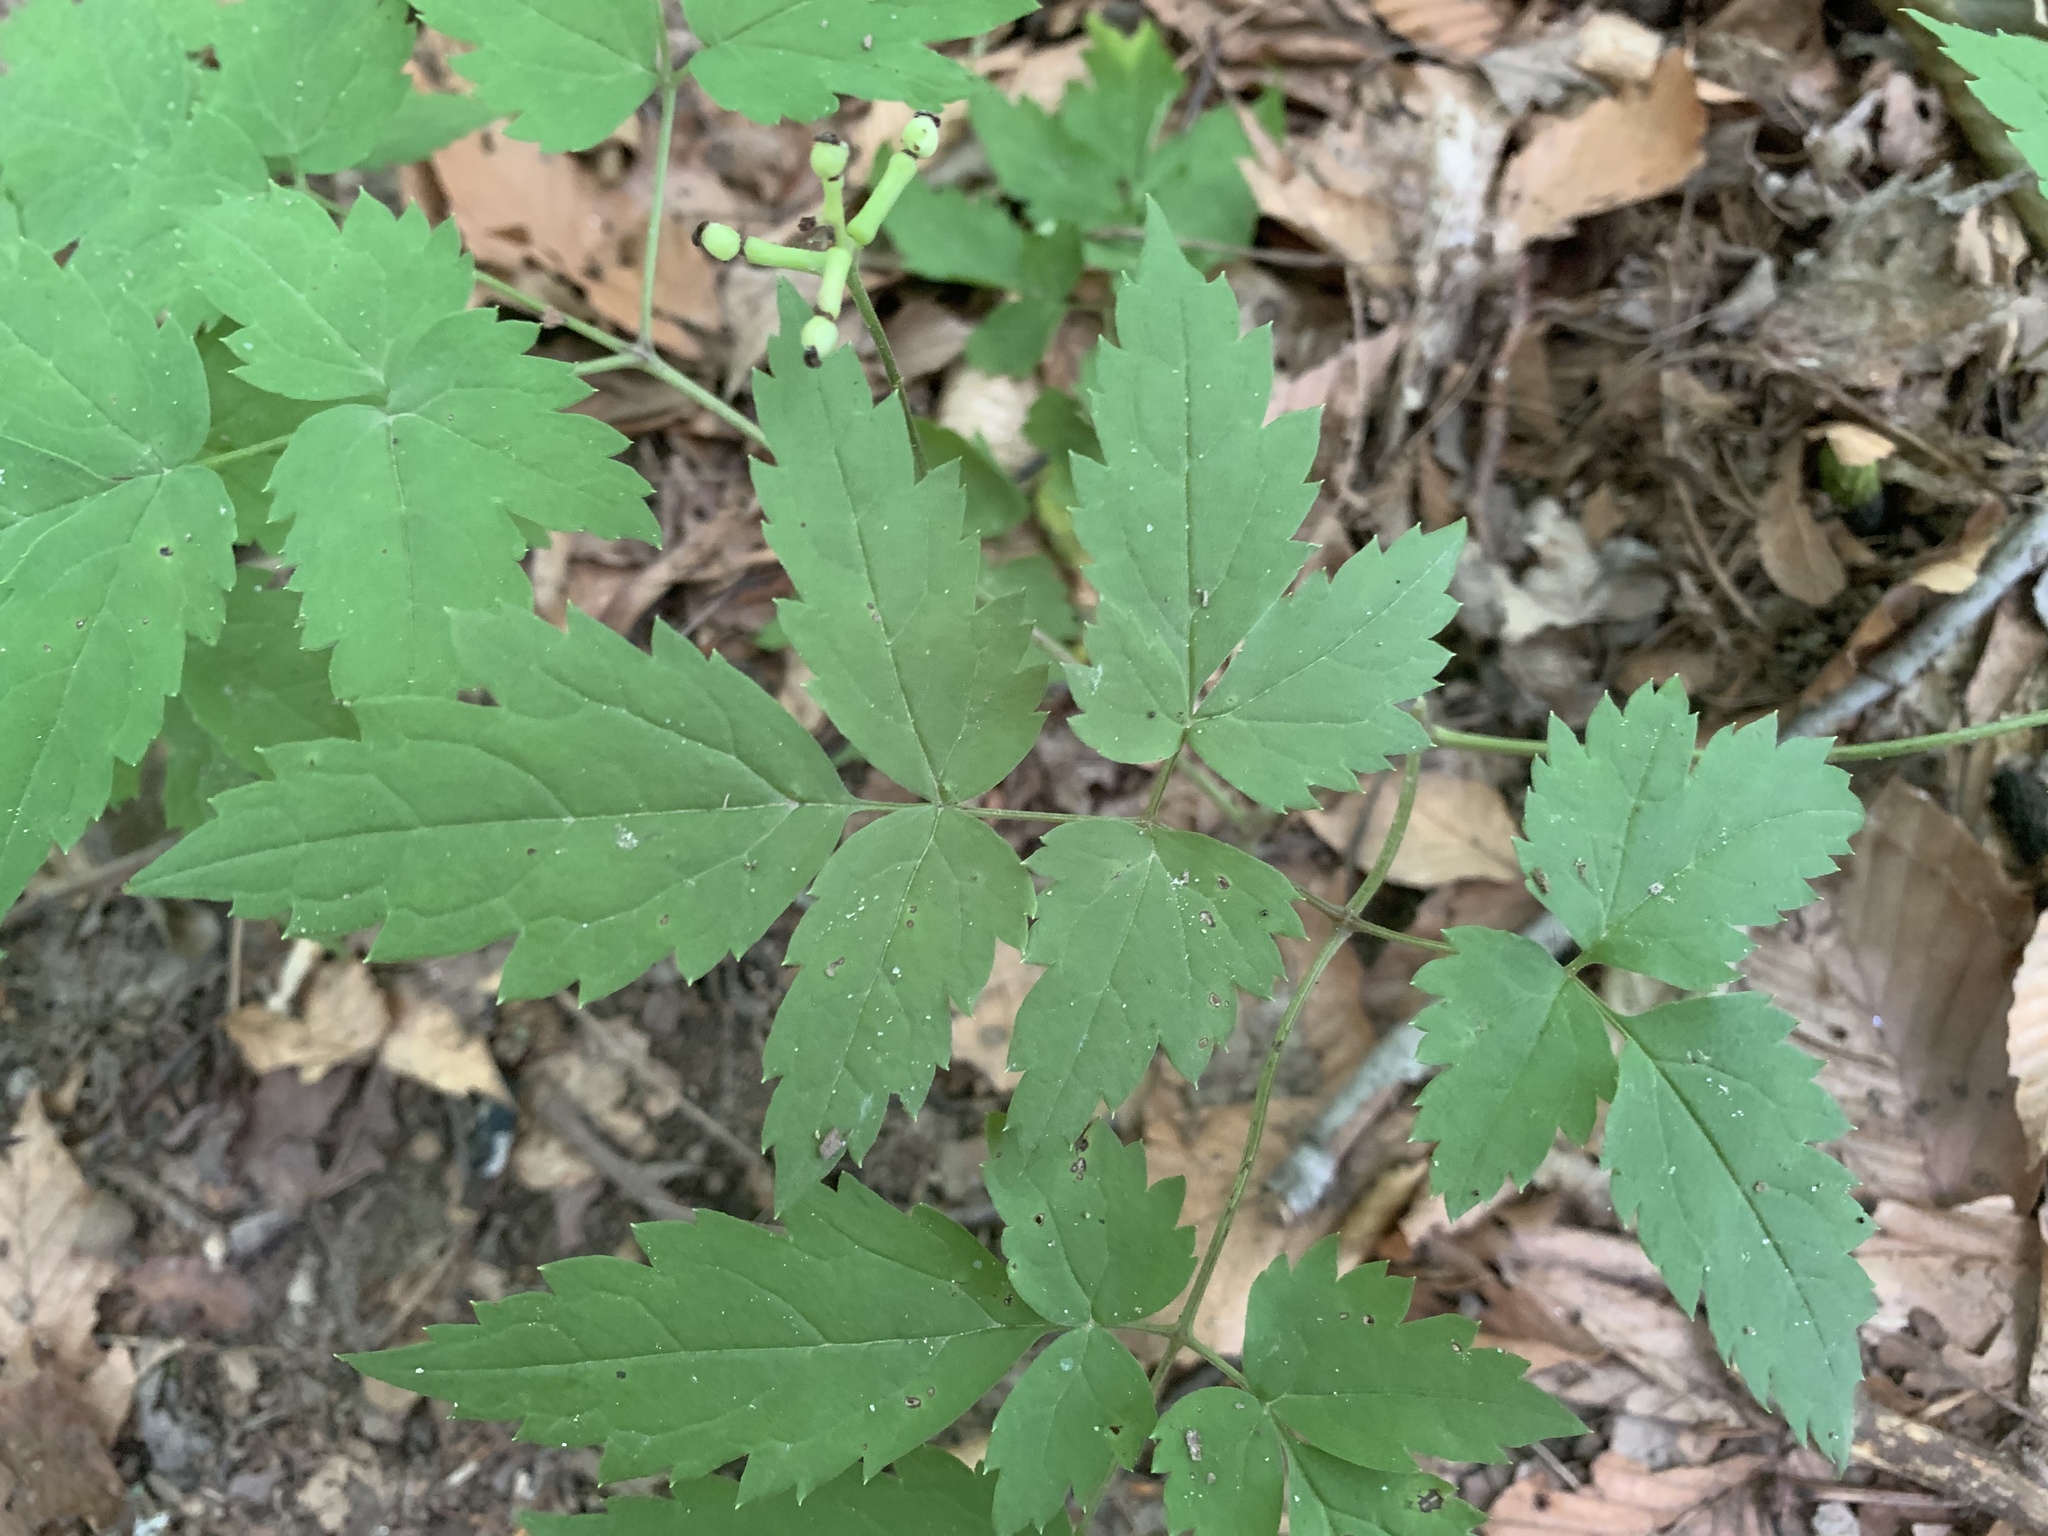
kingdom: Plantae
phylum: Tracheophyta
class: Magnoliopsida
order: Ranunculales
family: Ranunculaceae
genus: Actaea
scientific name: Actaea pachypoda
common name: Doll's-eyes
